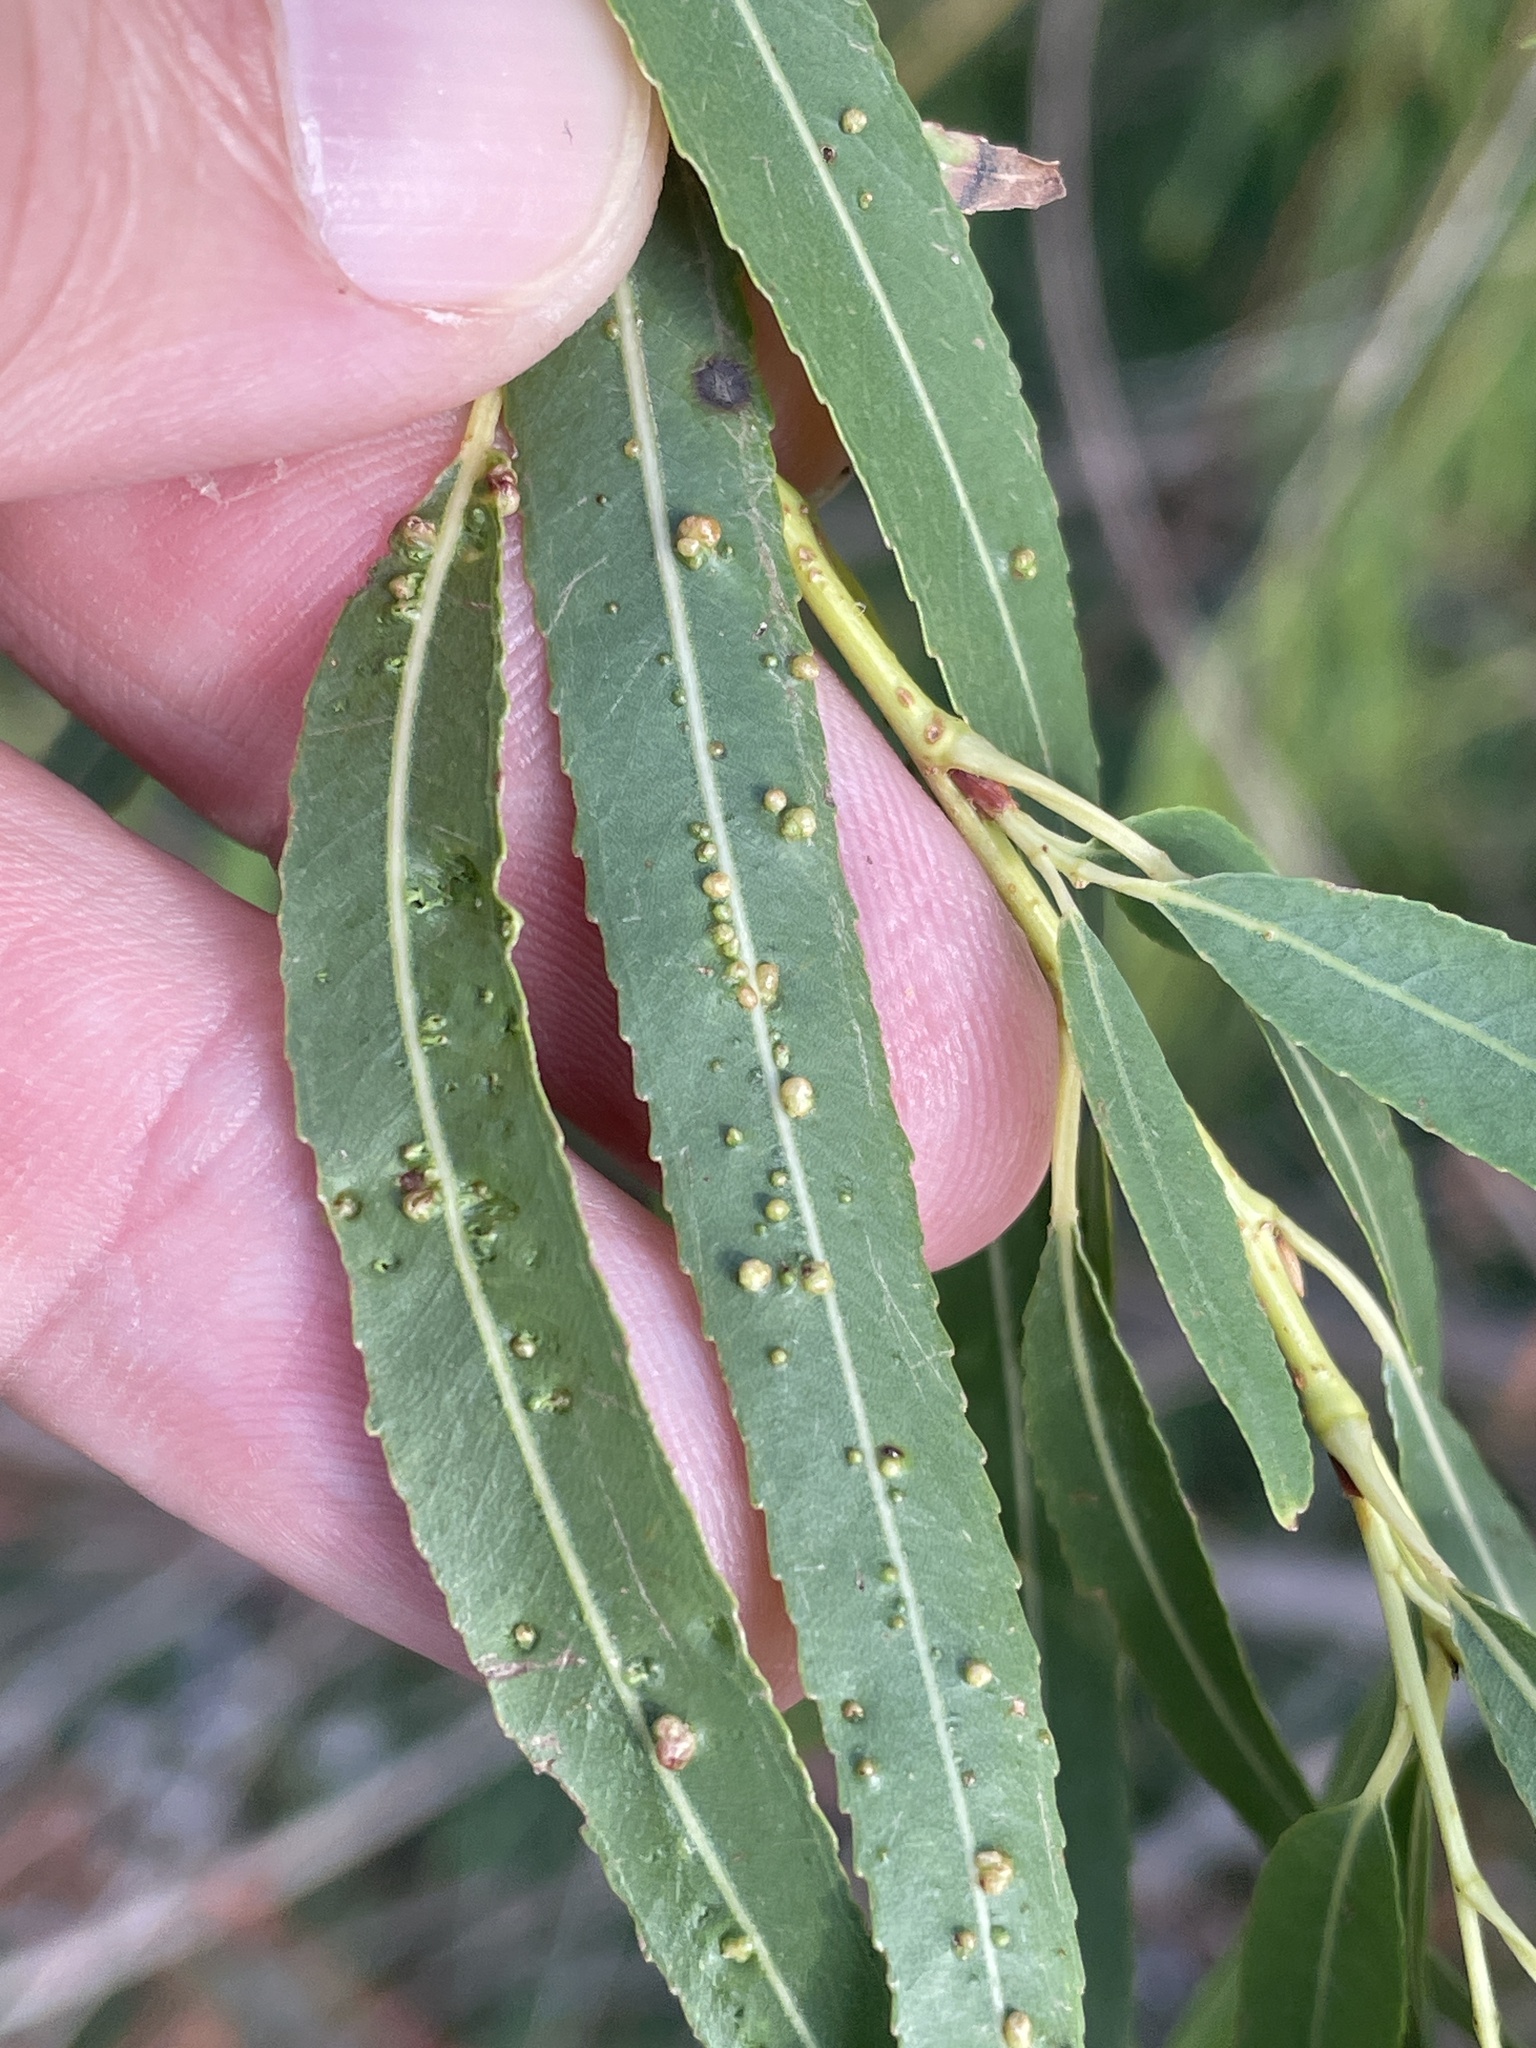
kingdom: Animalia
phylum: Arthropoda
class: Arachnida
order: Trombidiformes
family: Eriophyidae
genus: Aculus
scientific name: Aculus tetanothrix
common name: Willow bead gall mite
